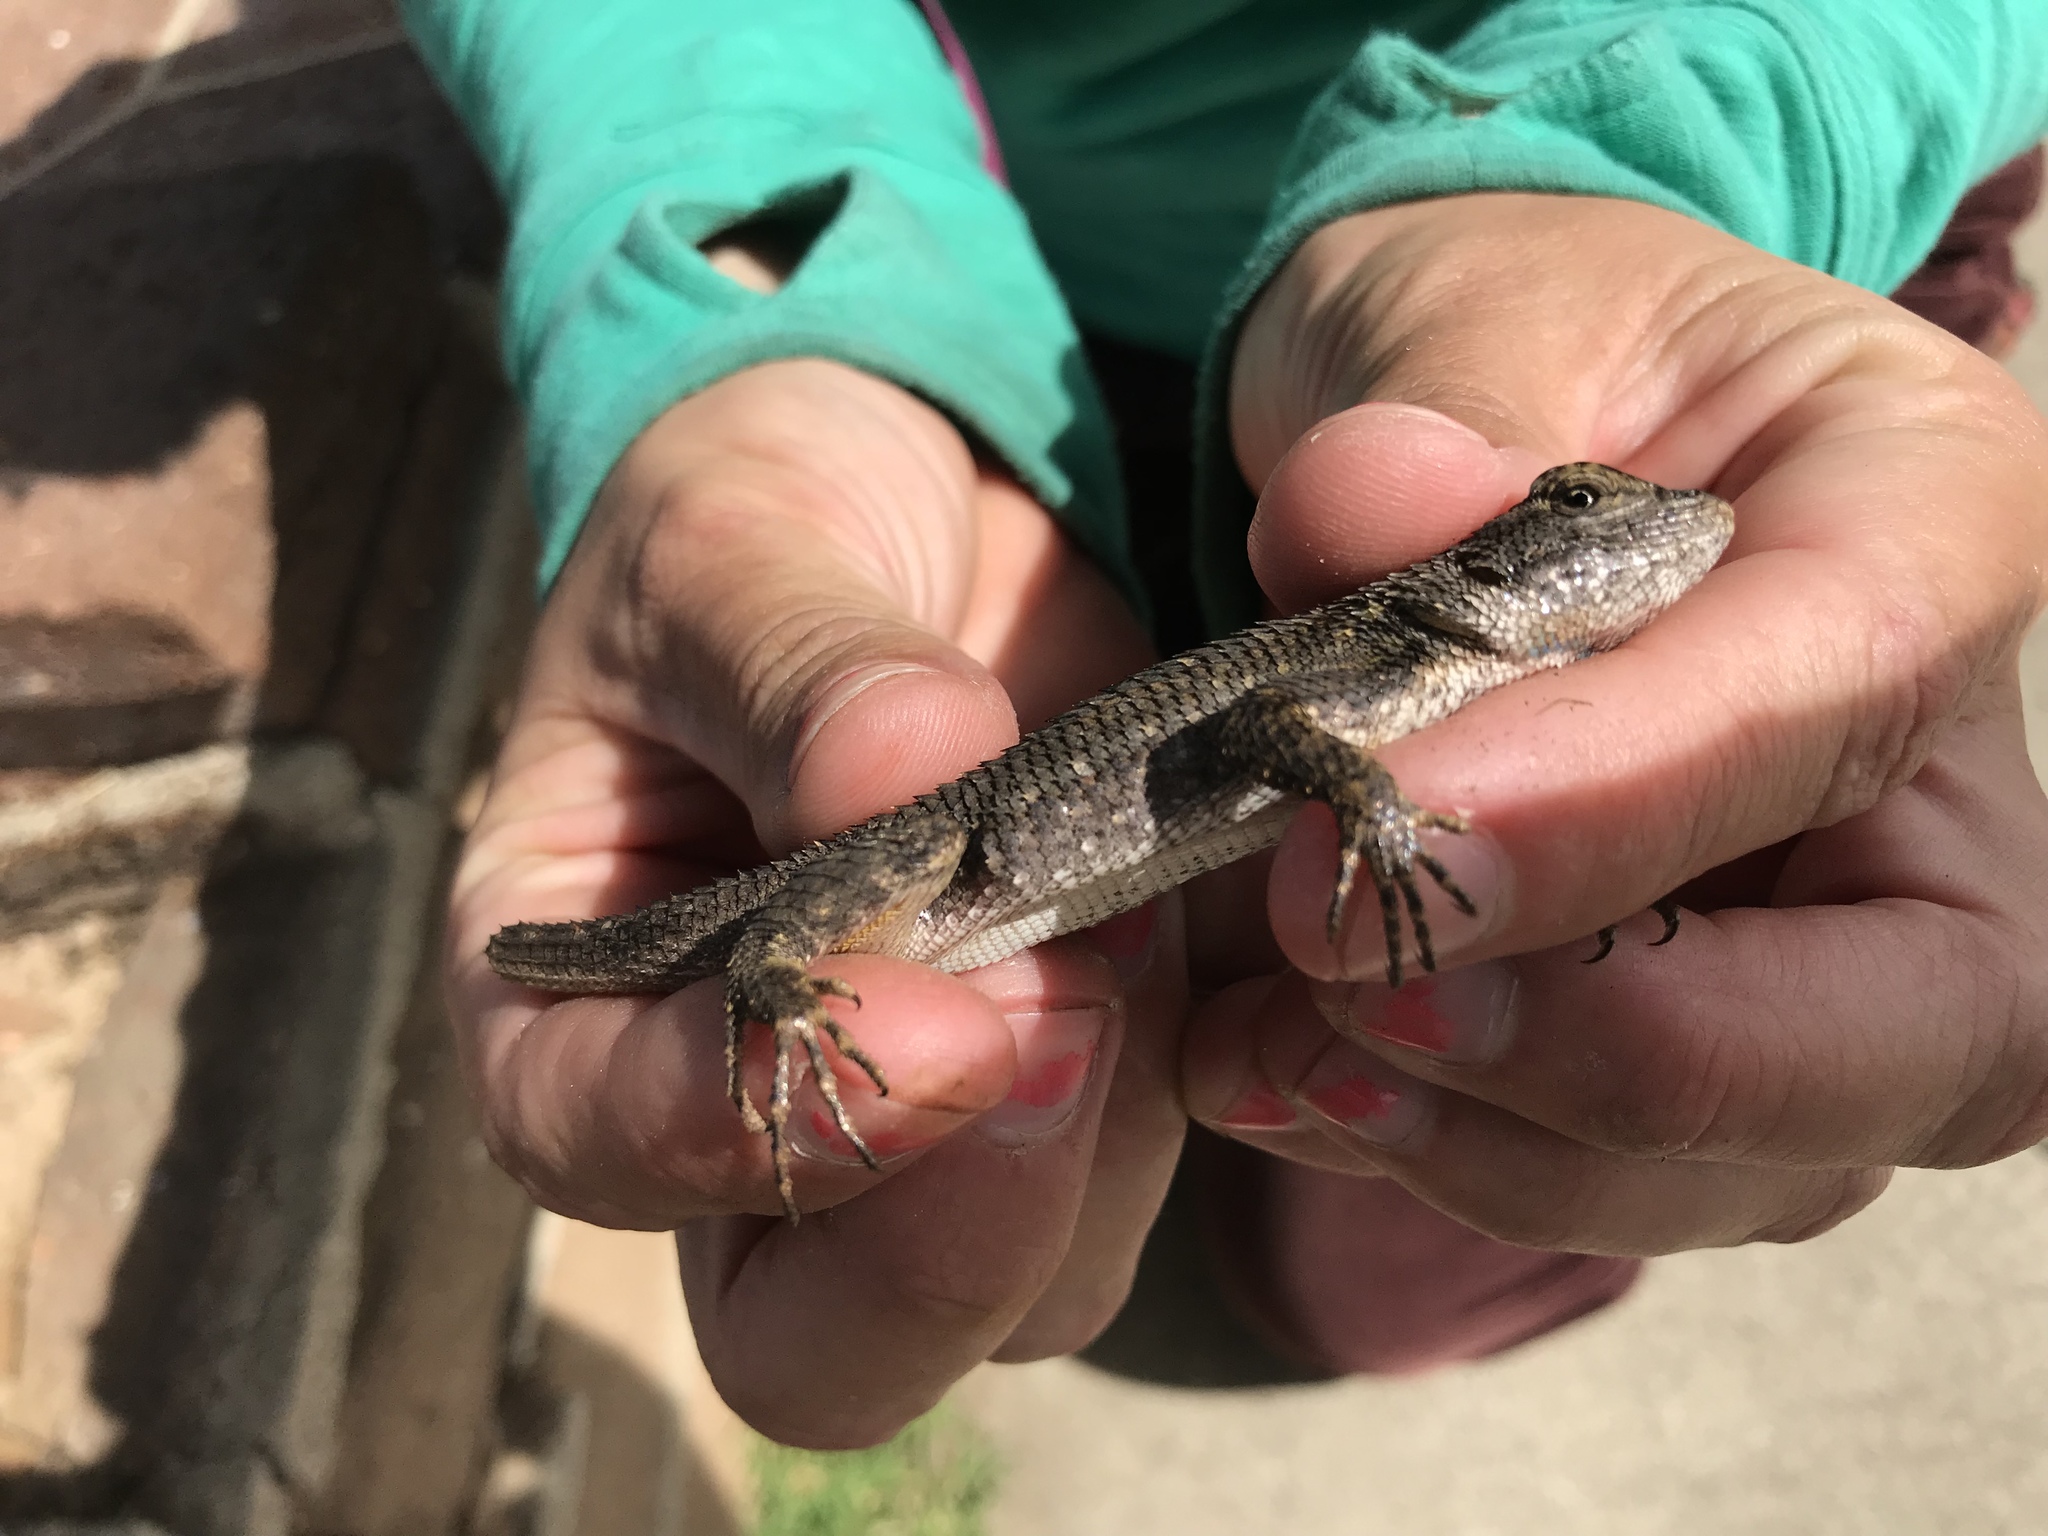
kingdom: Animalia
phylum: Chordata
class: Squamata
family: Phrynosomatidae
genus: Sceloporus
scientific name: Sceloporus occidentalis
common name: Western fence lizard
